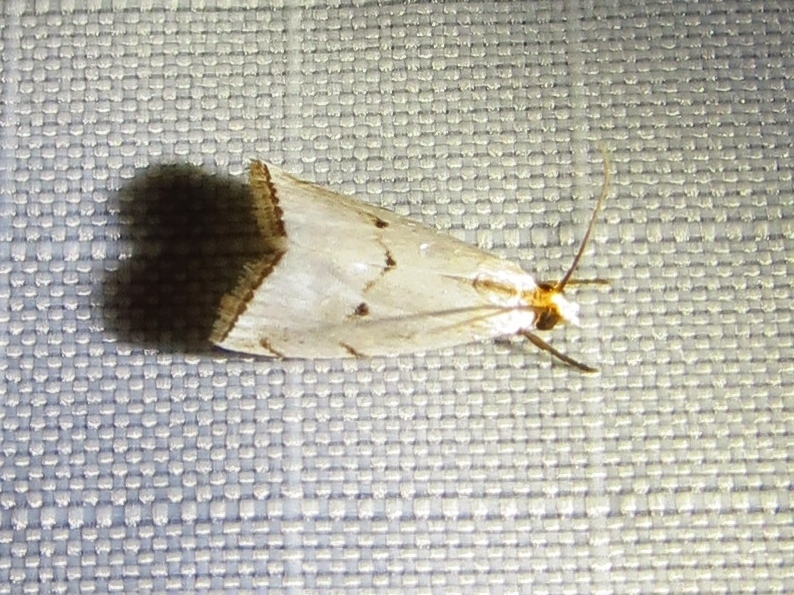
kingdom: Animalia
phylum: Arthropoda
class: Insecta
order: Lepidoptera
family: Crambidae
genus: Argyria
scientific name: Argyria pusillalis
